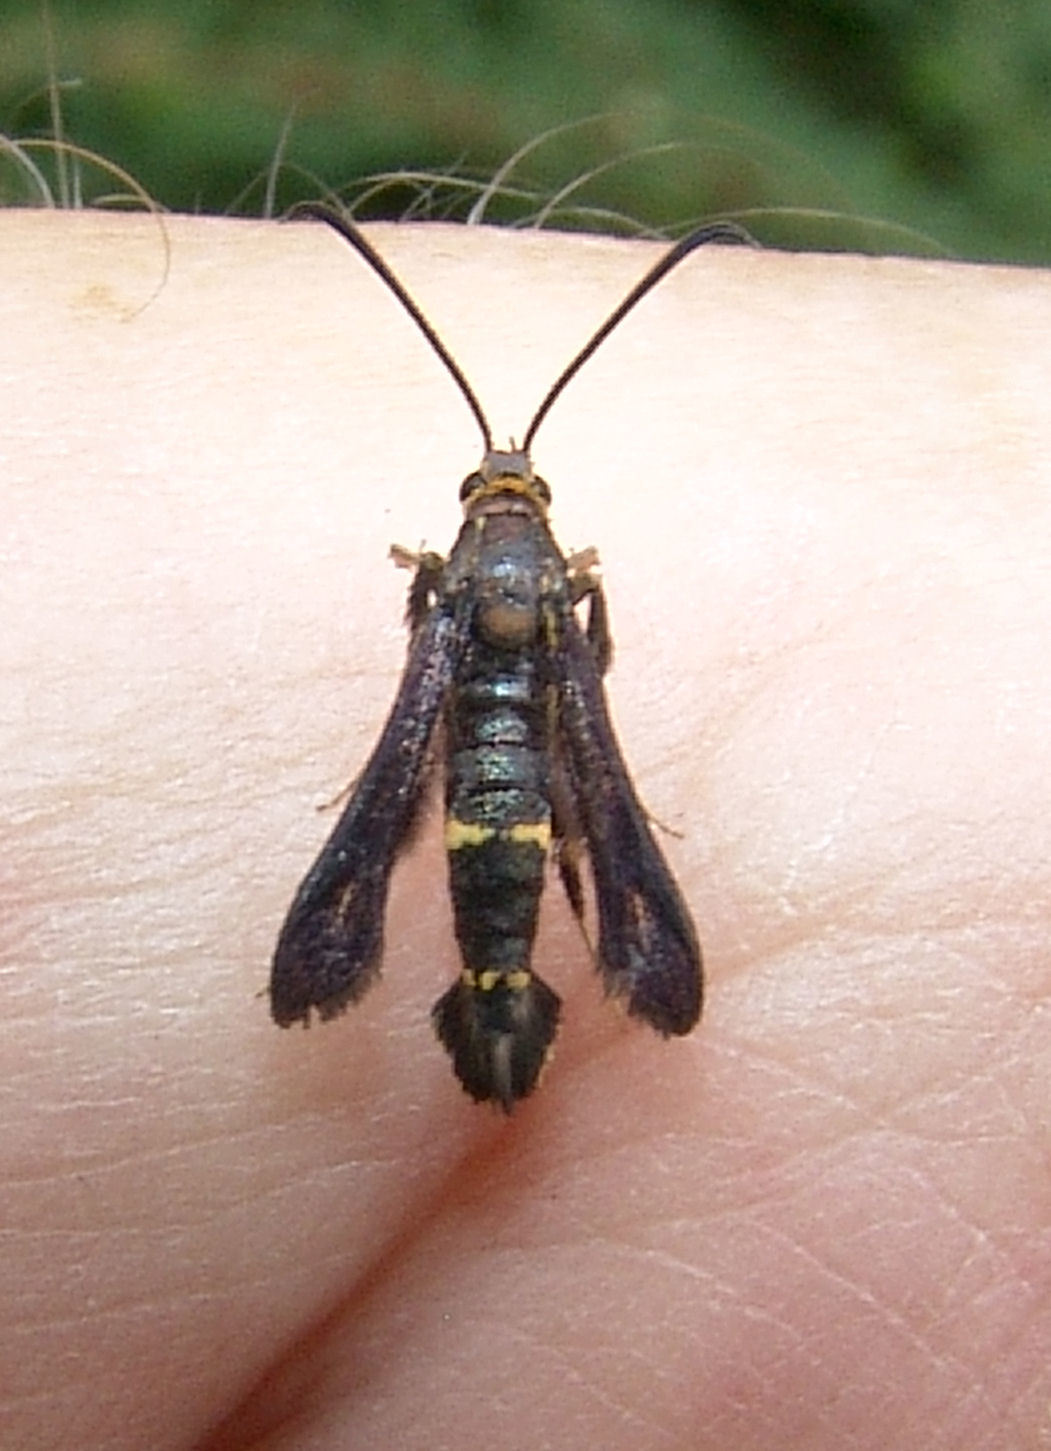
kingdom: Animalia
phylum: Arthropoda
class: Insecta
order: Lepidoptera
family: Sesiidae
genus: Carmenta
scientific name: Carmenta pyralidiformis
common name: Boneset borer moth
